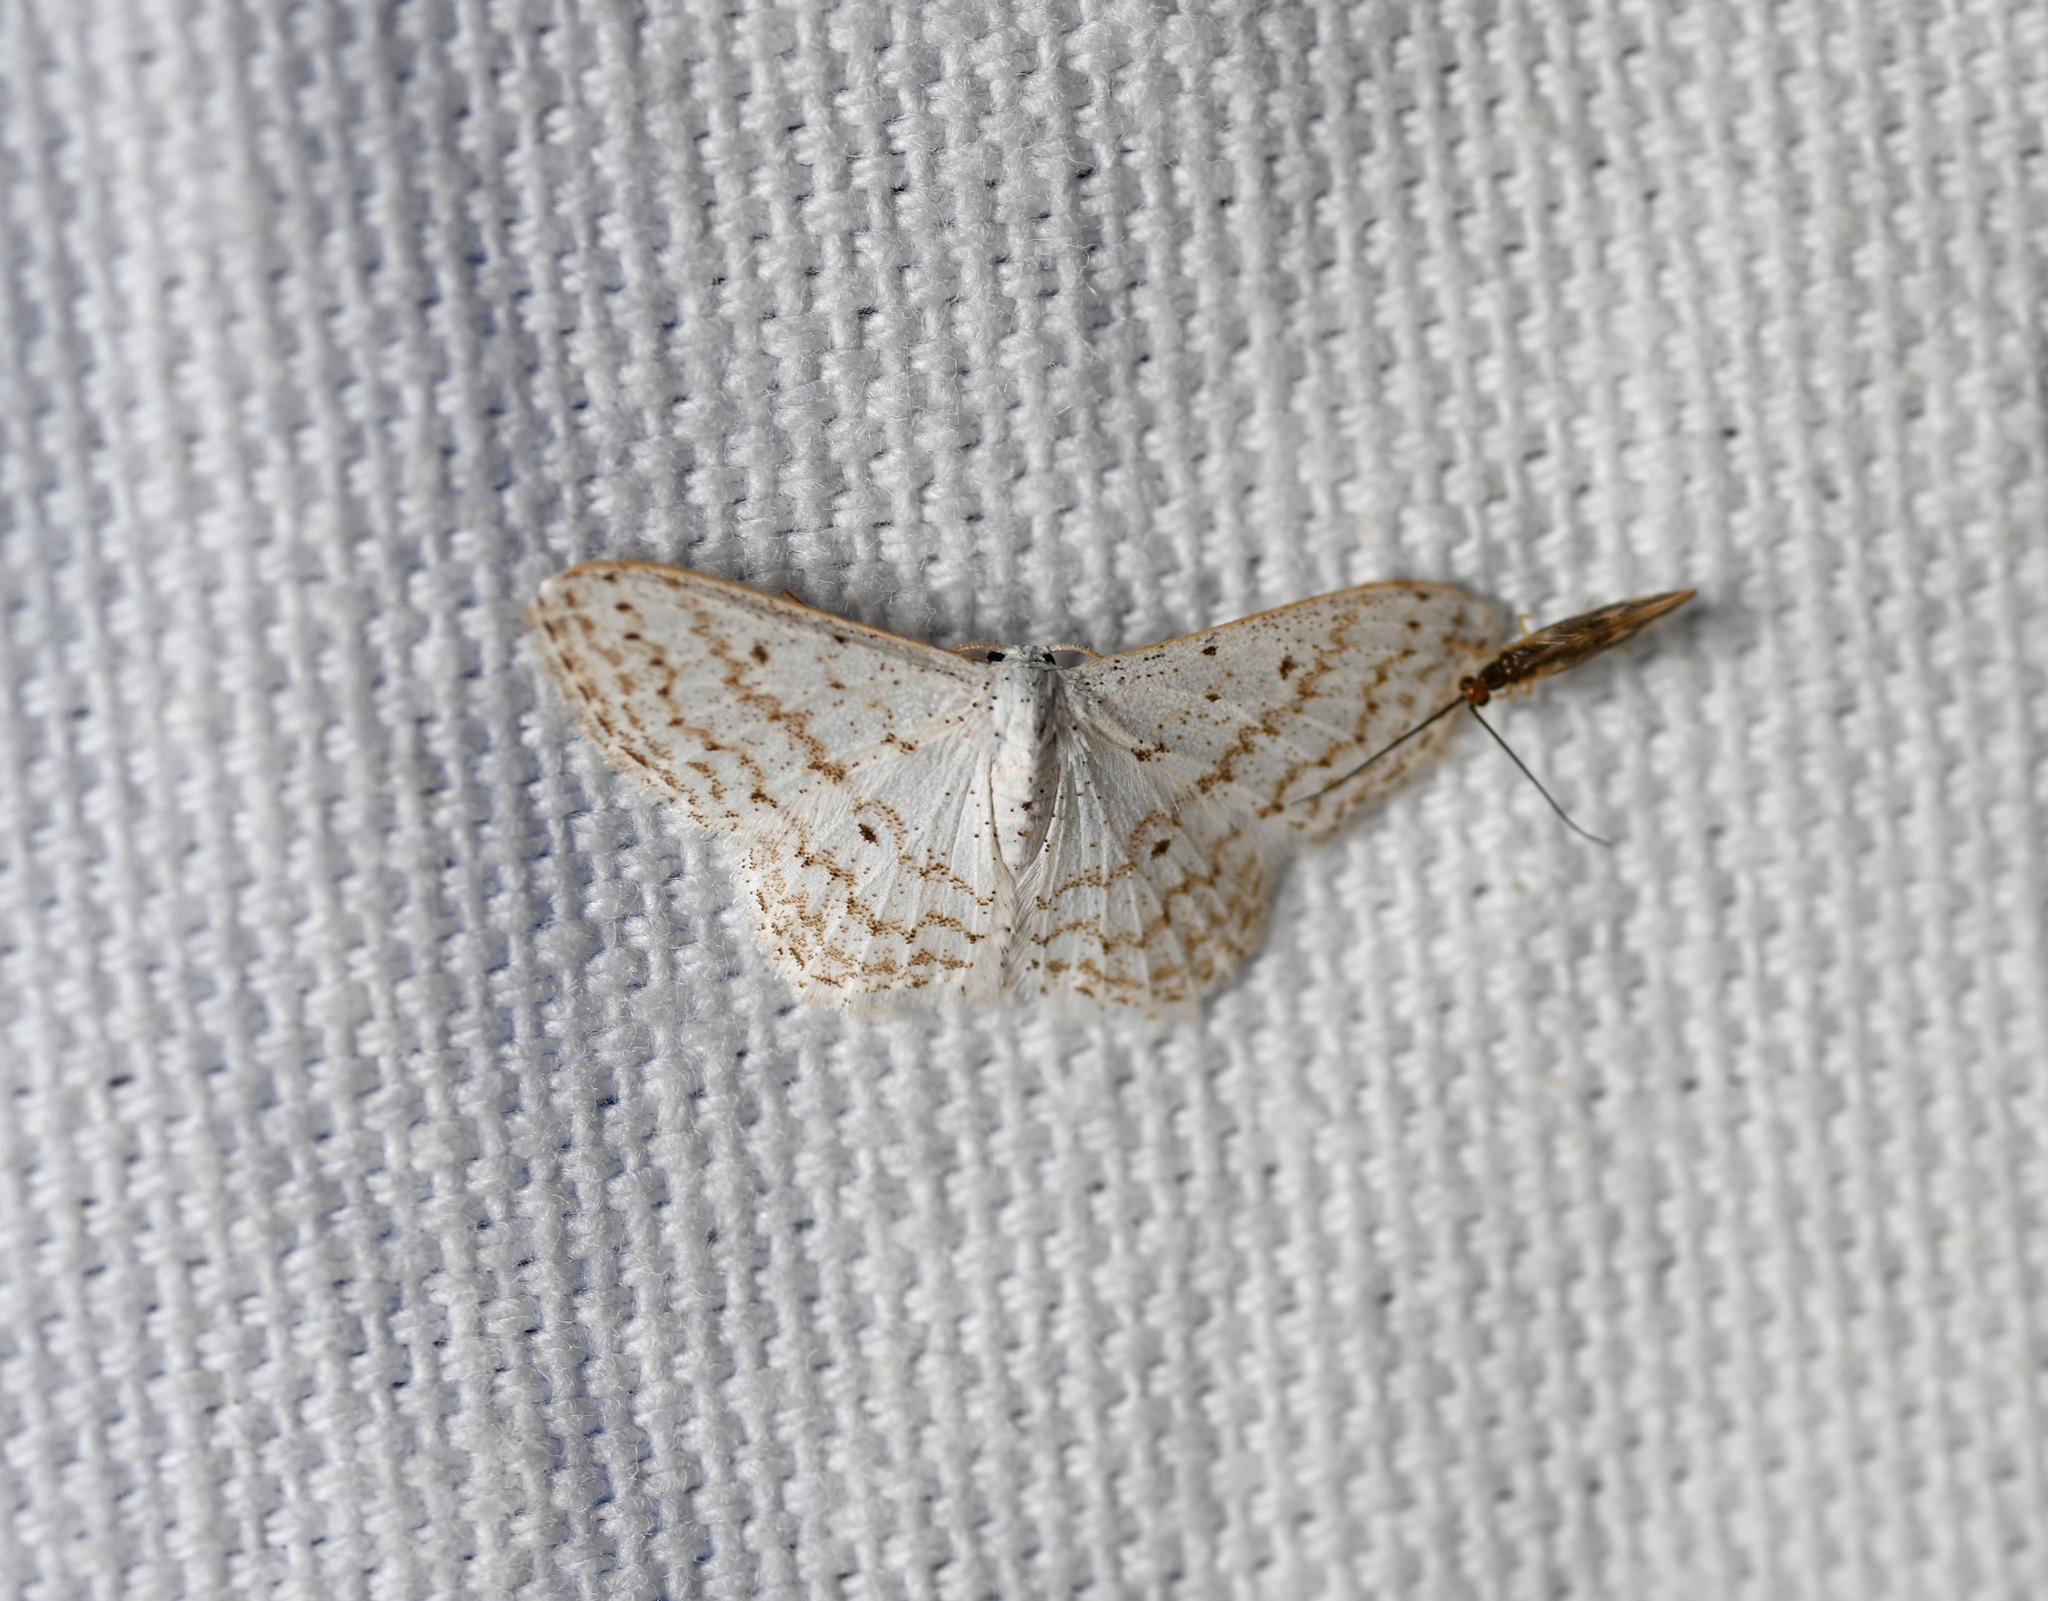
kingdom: Animalia
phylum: Arthropoda
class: Insecta
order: Lepidoptera
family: Geometridae
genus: Idaea
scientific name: Idaea tacturata
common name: Dot-lined wave
